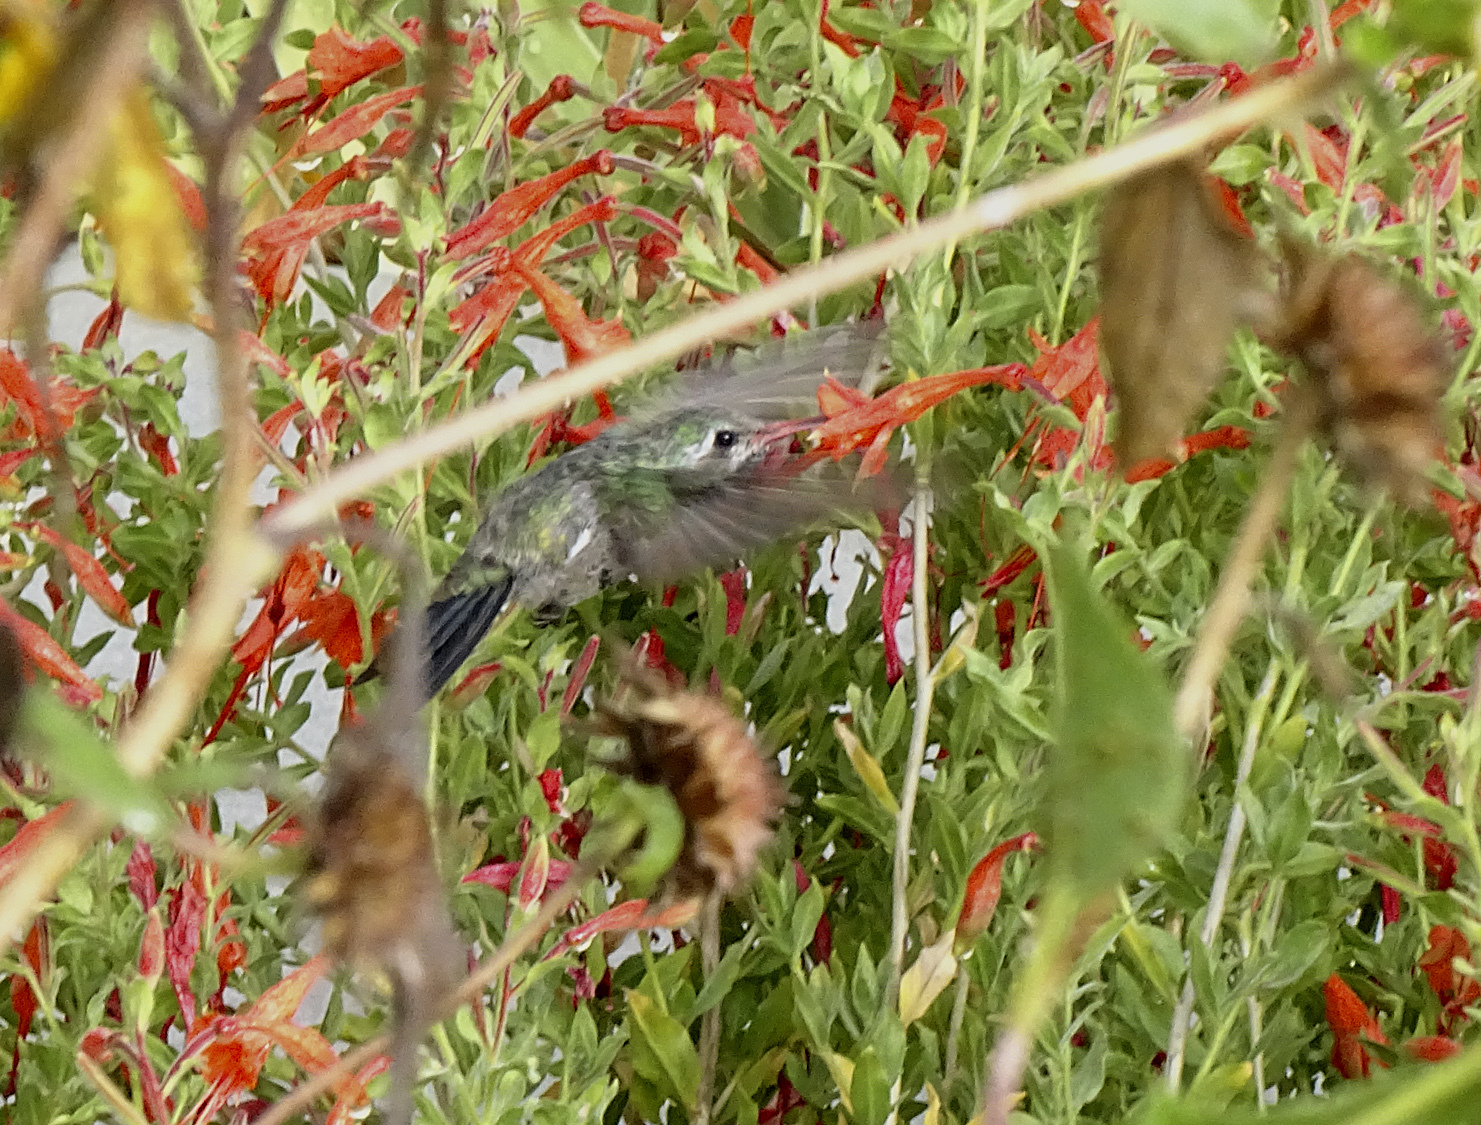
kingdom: Animalia
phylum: Chordata
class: Aves
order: Apodiformes
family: Trochilidae
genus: Cynanthus
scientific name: Cynanthus latirostris
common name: Broad-billed hummingbird
